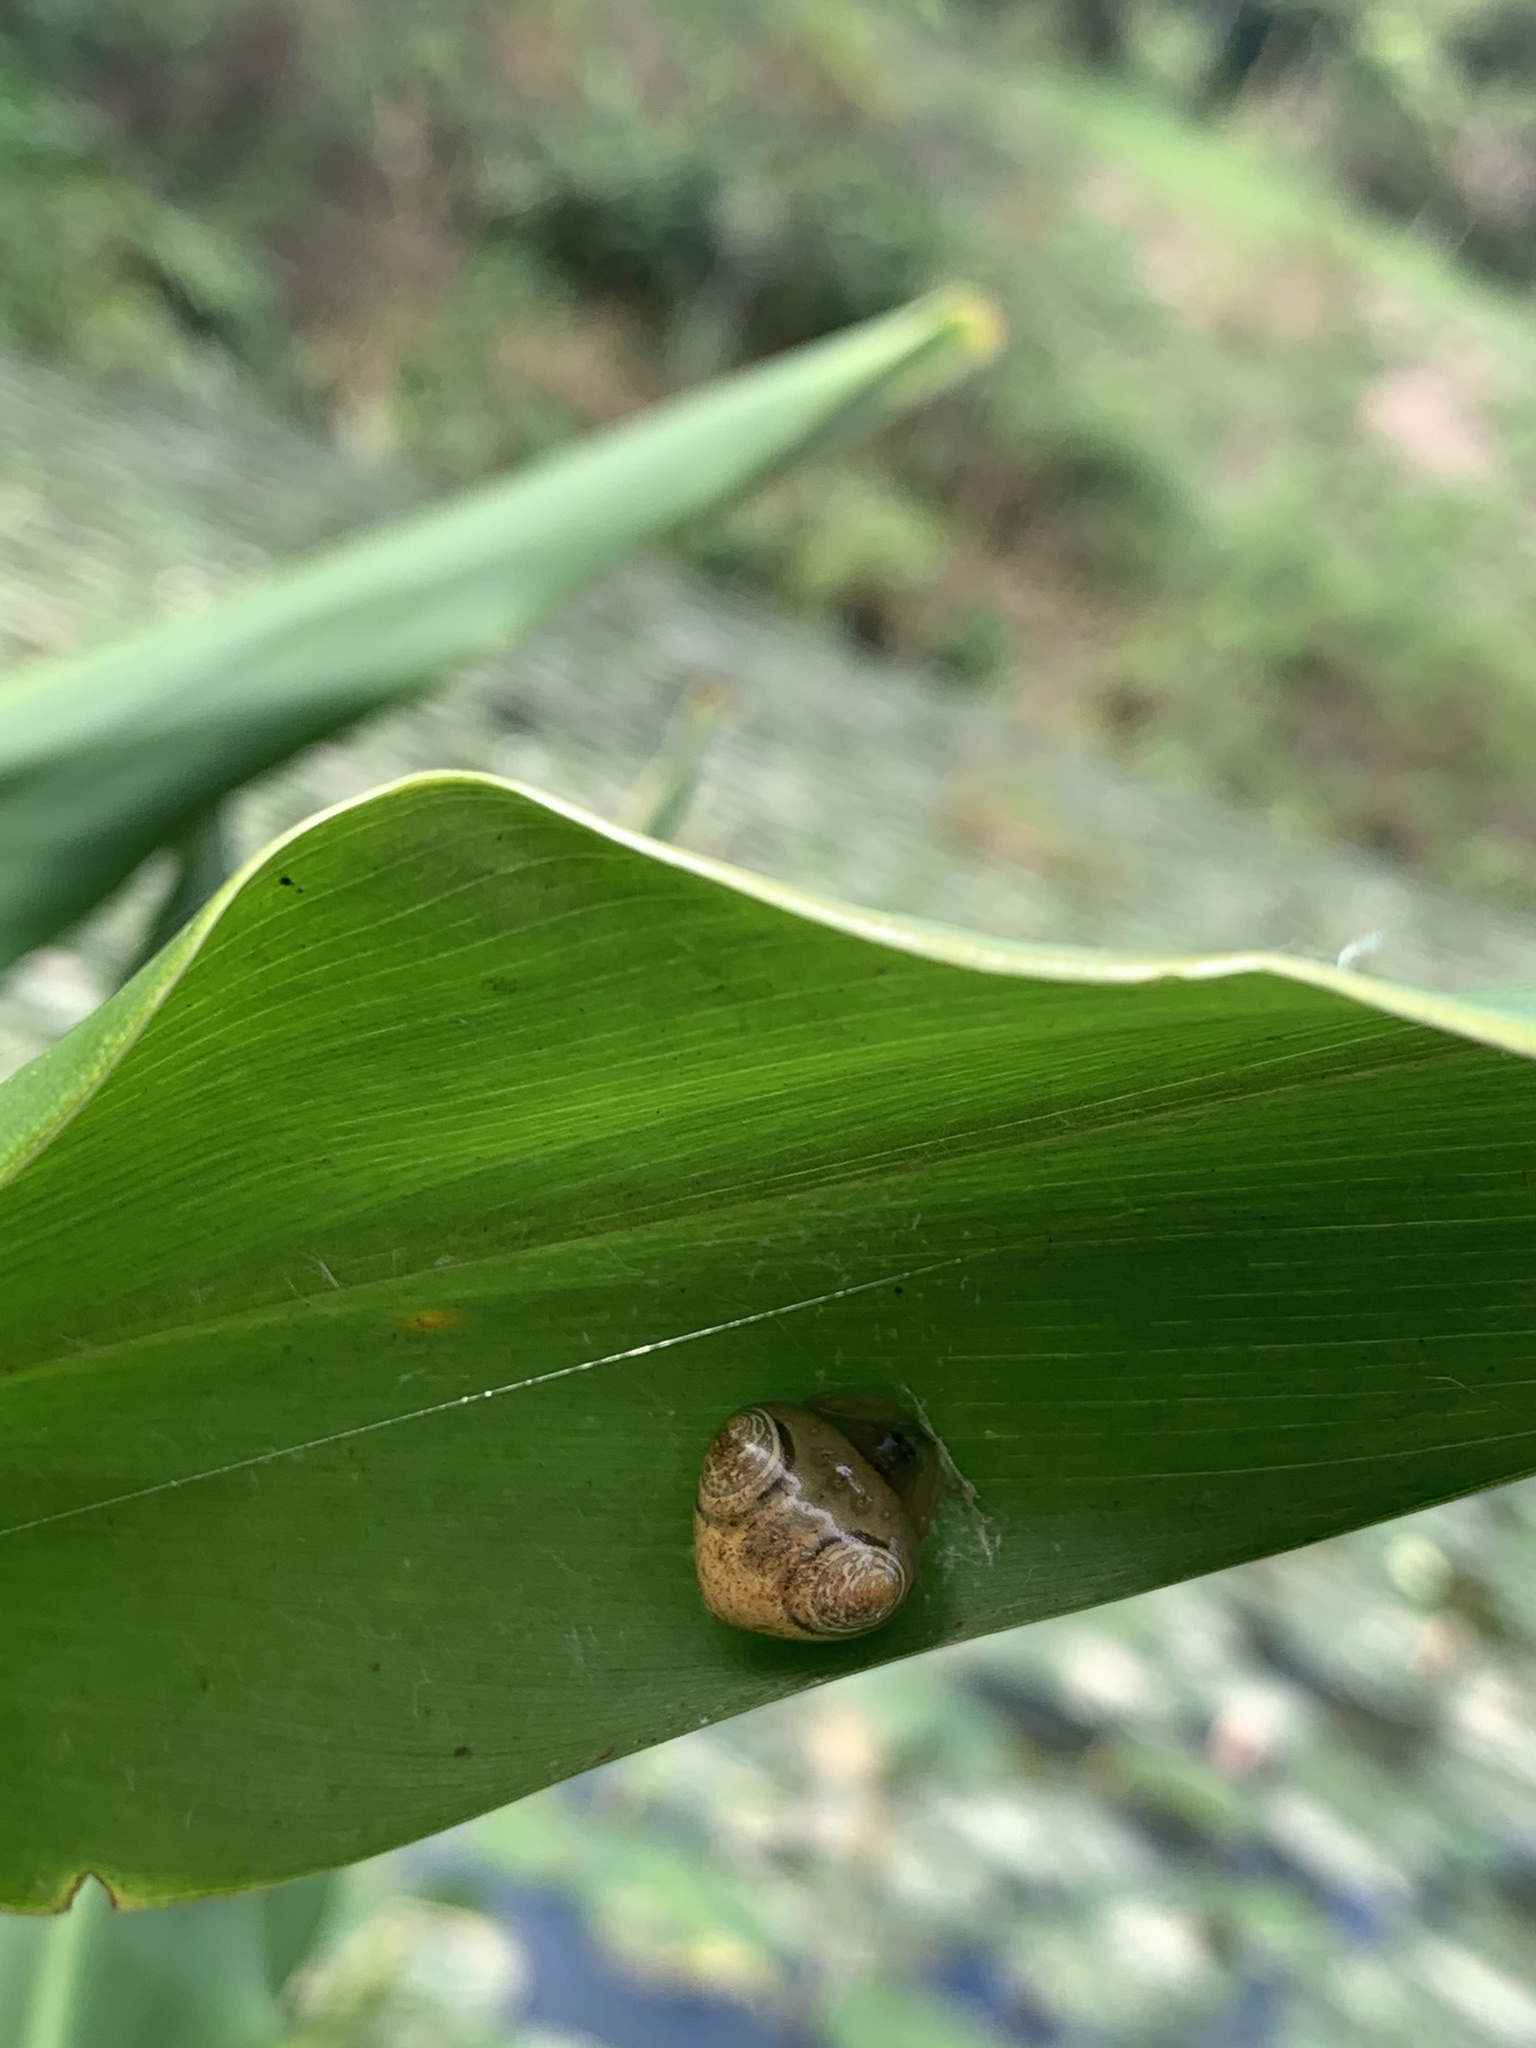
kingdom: Animalia
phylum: Arthropoda
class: Arachnida
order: Araneae
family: Araneidae
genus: Cyrtarachne
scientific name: Cyrtarachne inaequalis
